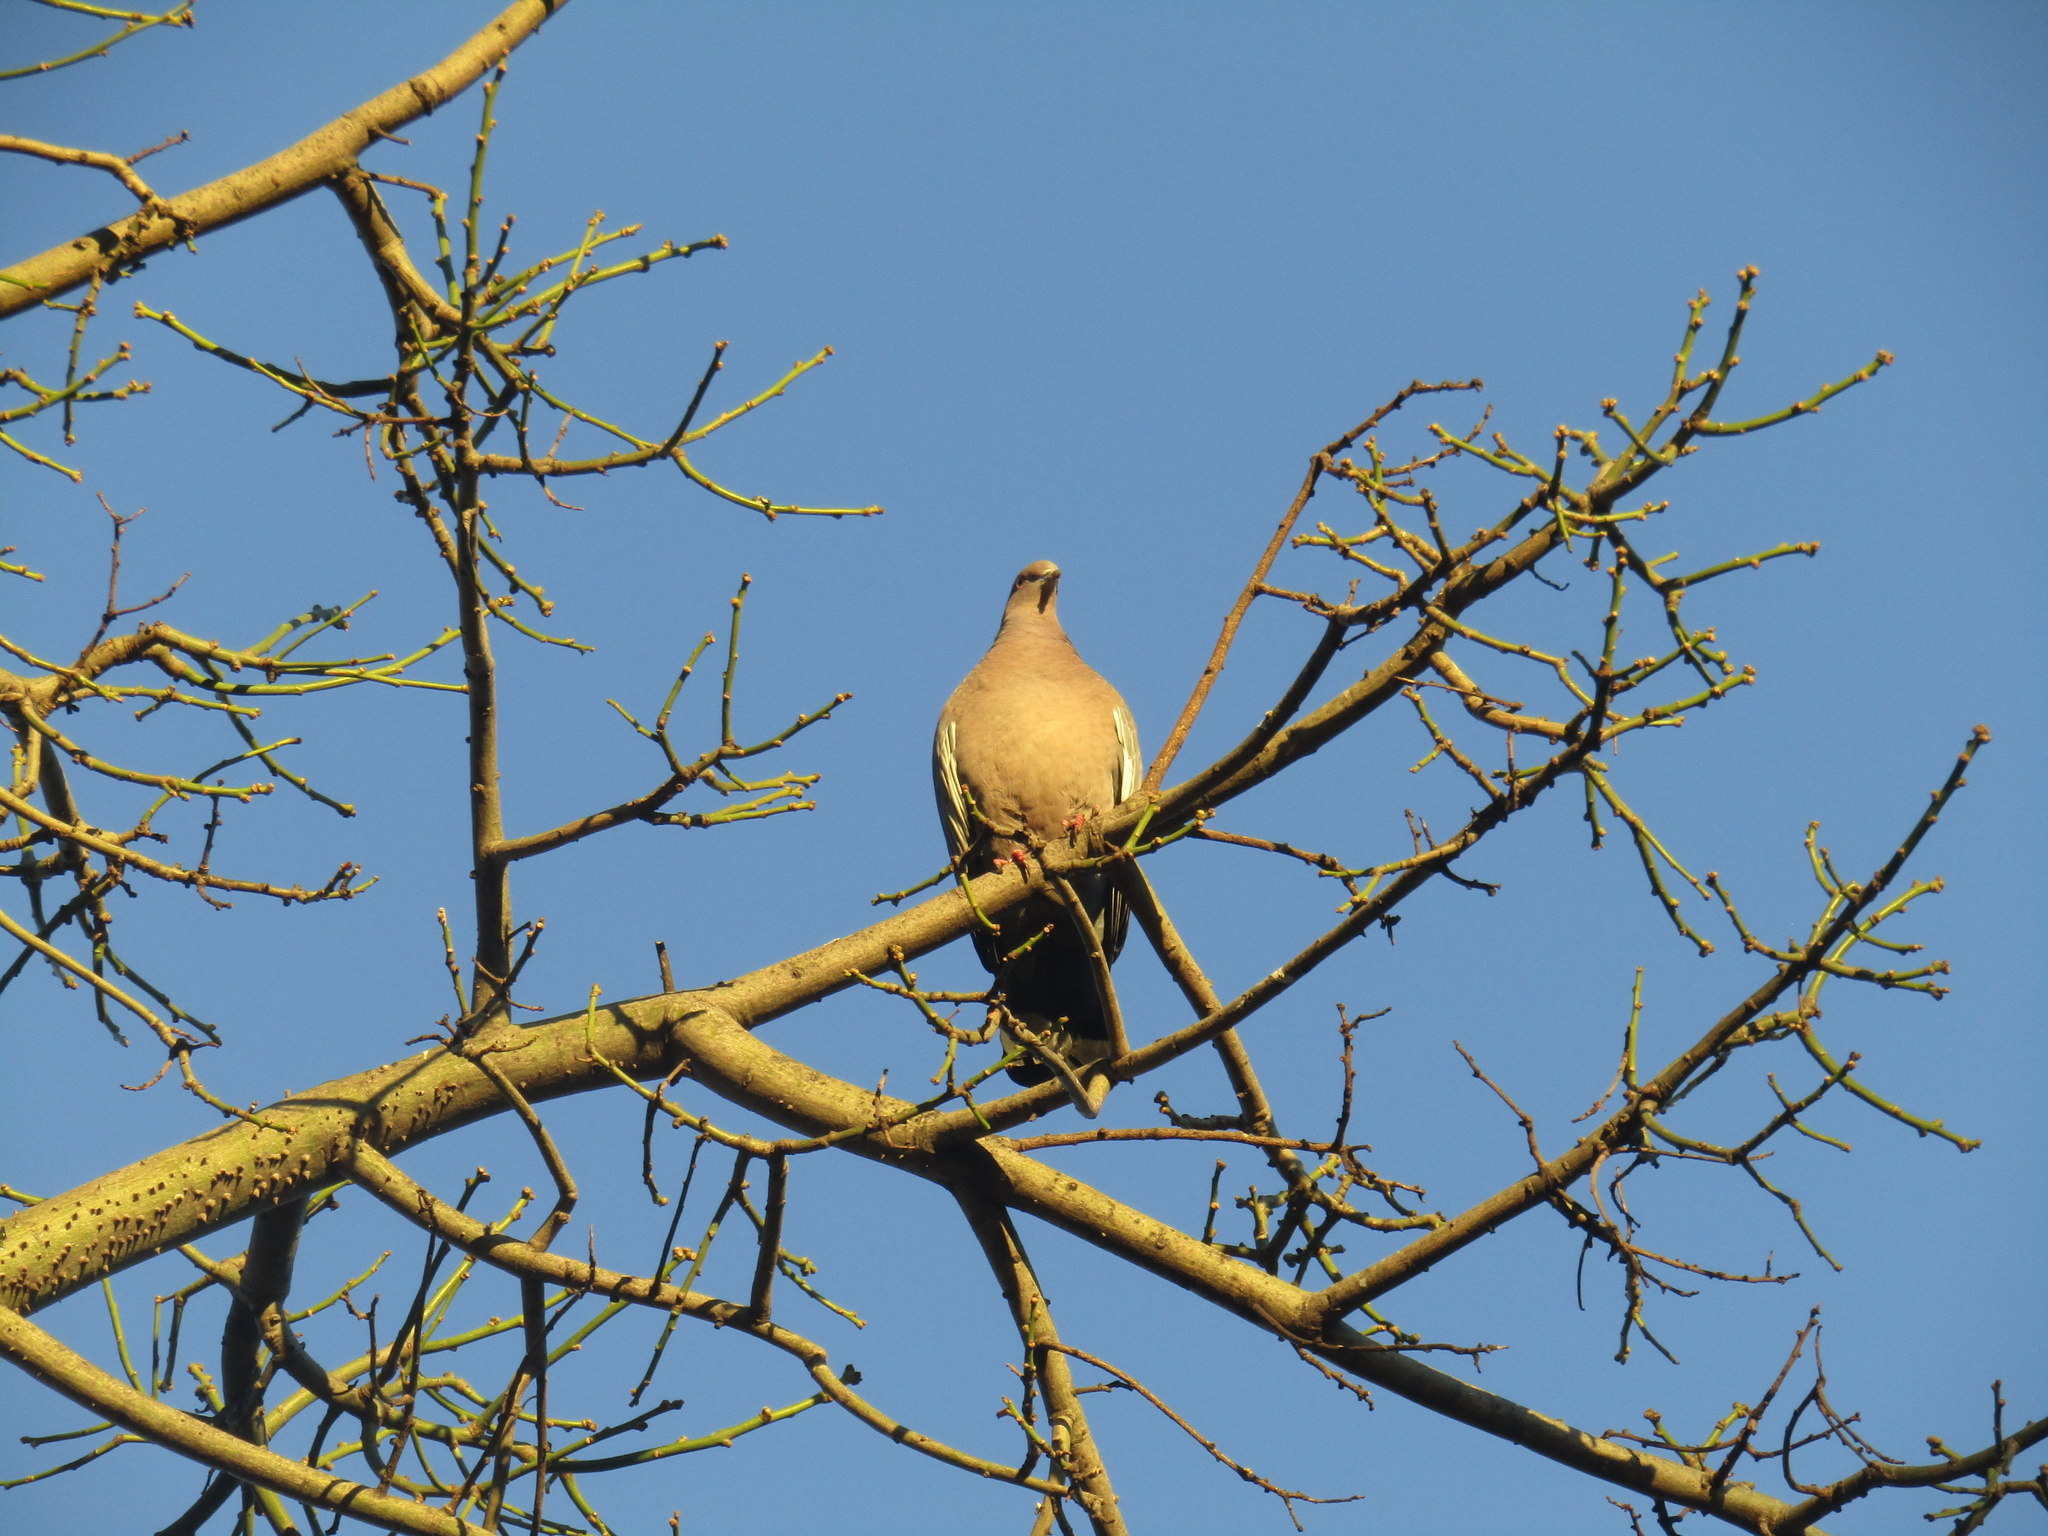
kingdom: Animalia
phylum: Chordata
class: Aves
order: Columbiformes
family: Columbidae
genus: Patagioenas
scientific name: Patagioenas picazuro
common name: Picazuro pigeon
